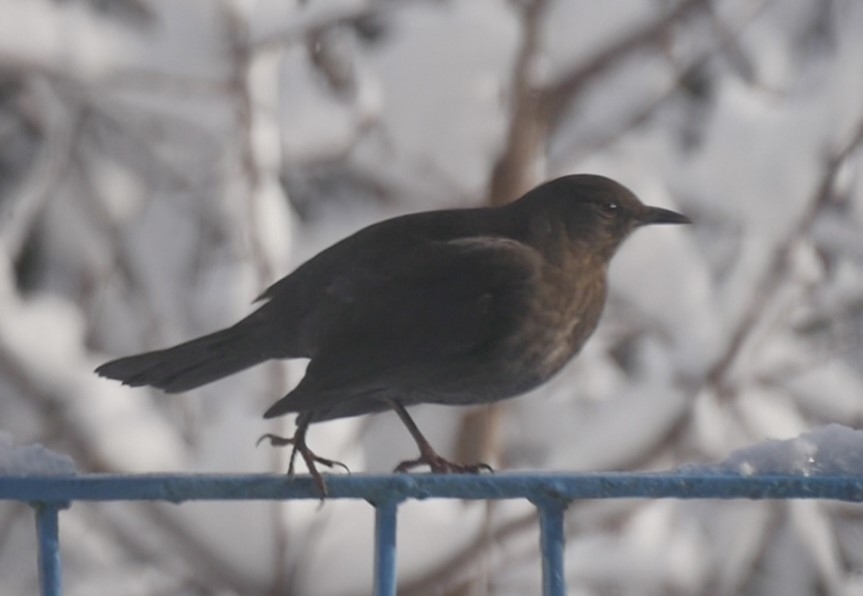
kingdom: Animalia
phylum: Chordata
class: Aves
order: Passeriformes
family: Turdidae
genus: Turdus
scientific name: Turdus merula
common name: Common blackbird
